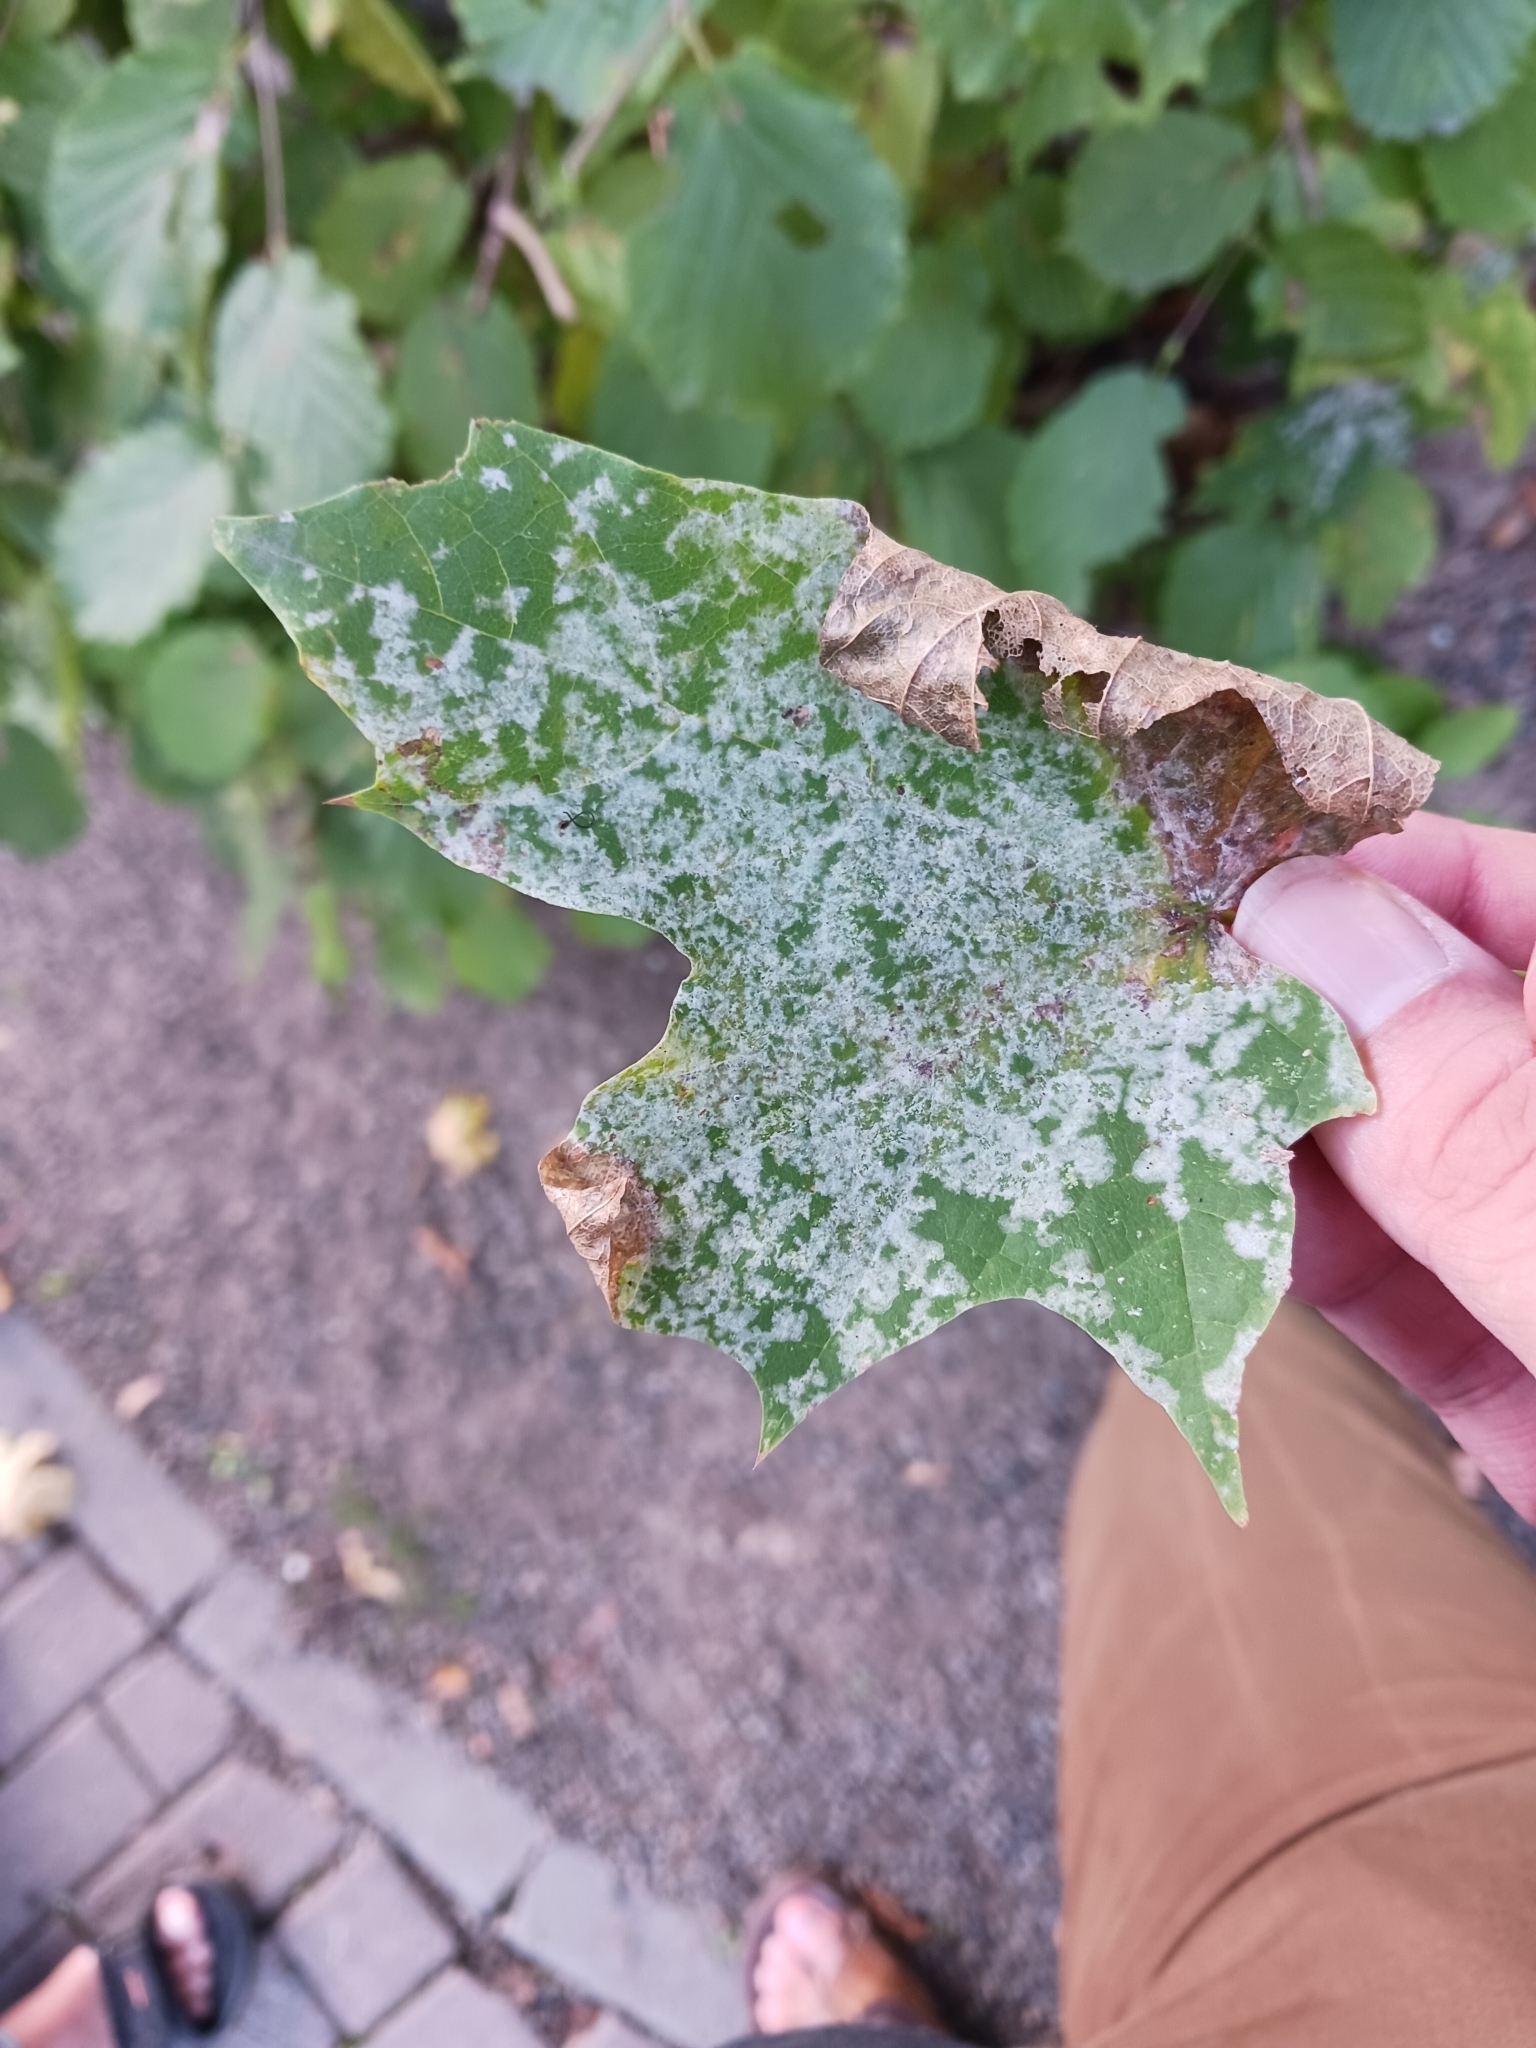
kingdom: Fungi
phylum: Ascomycota
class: Leotiomycetes
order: Helotiales
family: Erysiphaceae
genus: Sawadaea
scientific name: Sawadaea tulasnei
